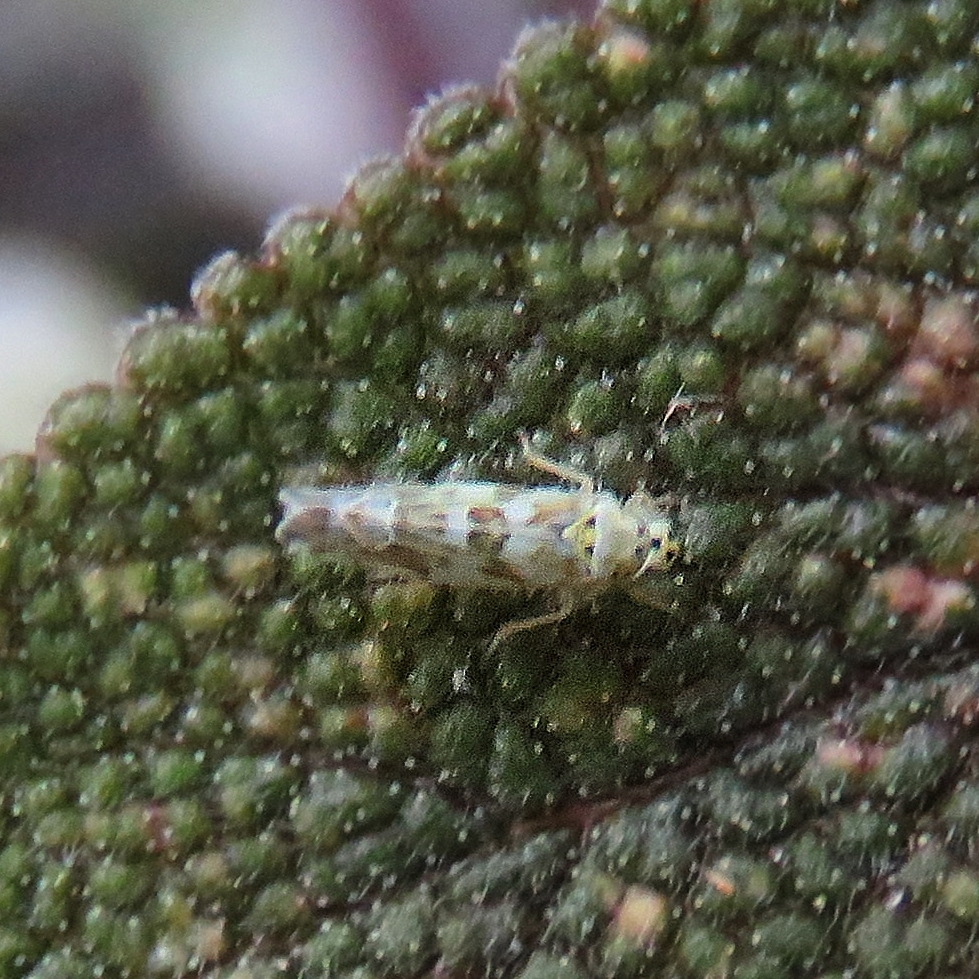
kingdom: Animalia
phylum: Arthropoda
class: Insecta
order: Hemiptera
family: Cicadellidae
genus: Eupteryx
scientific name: Eupteryx melissae
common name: Herb leafhopper
